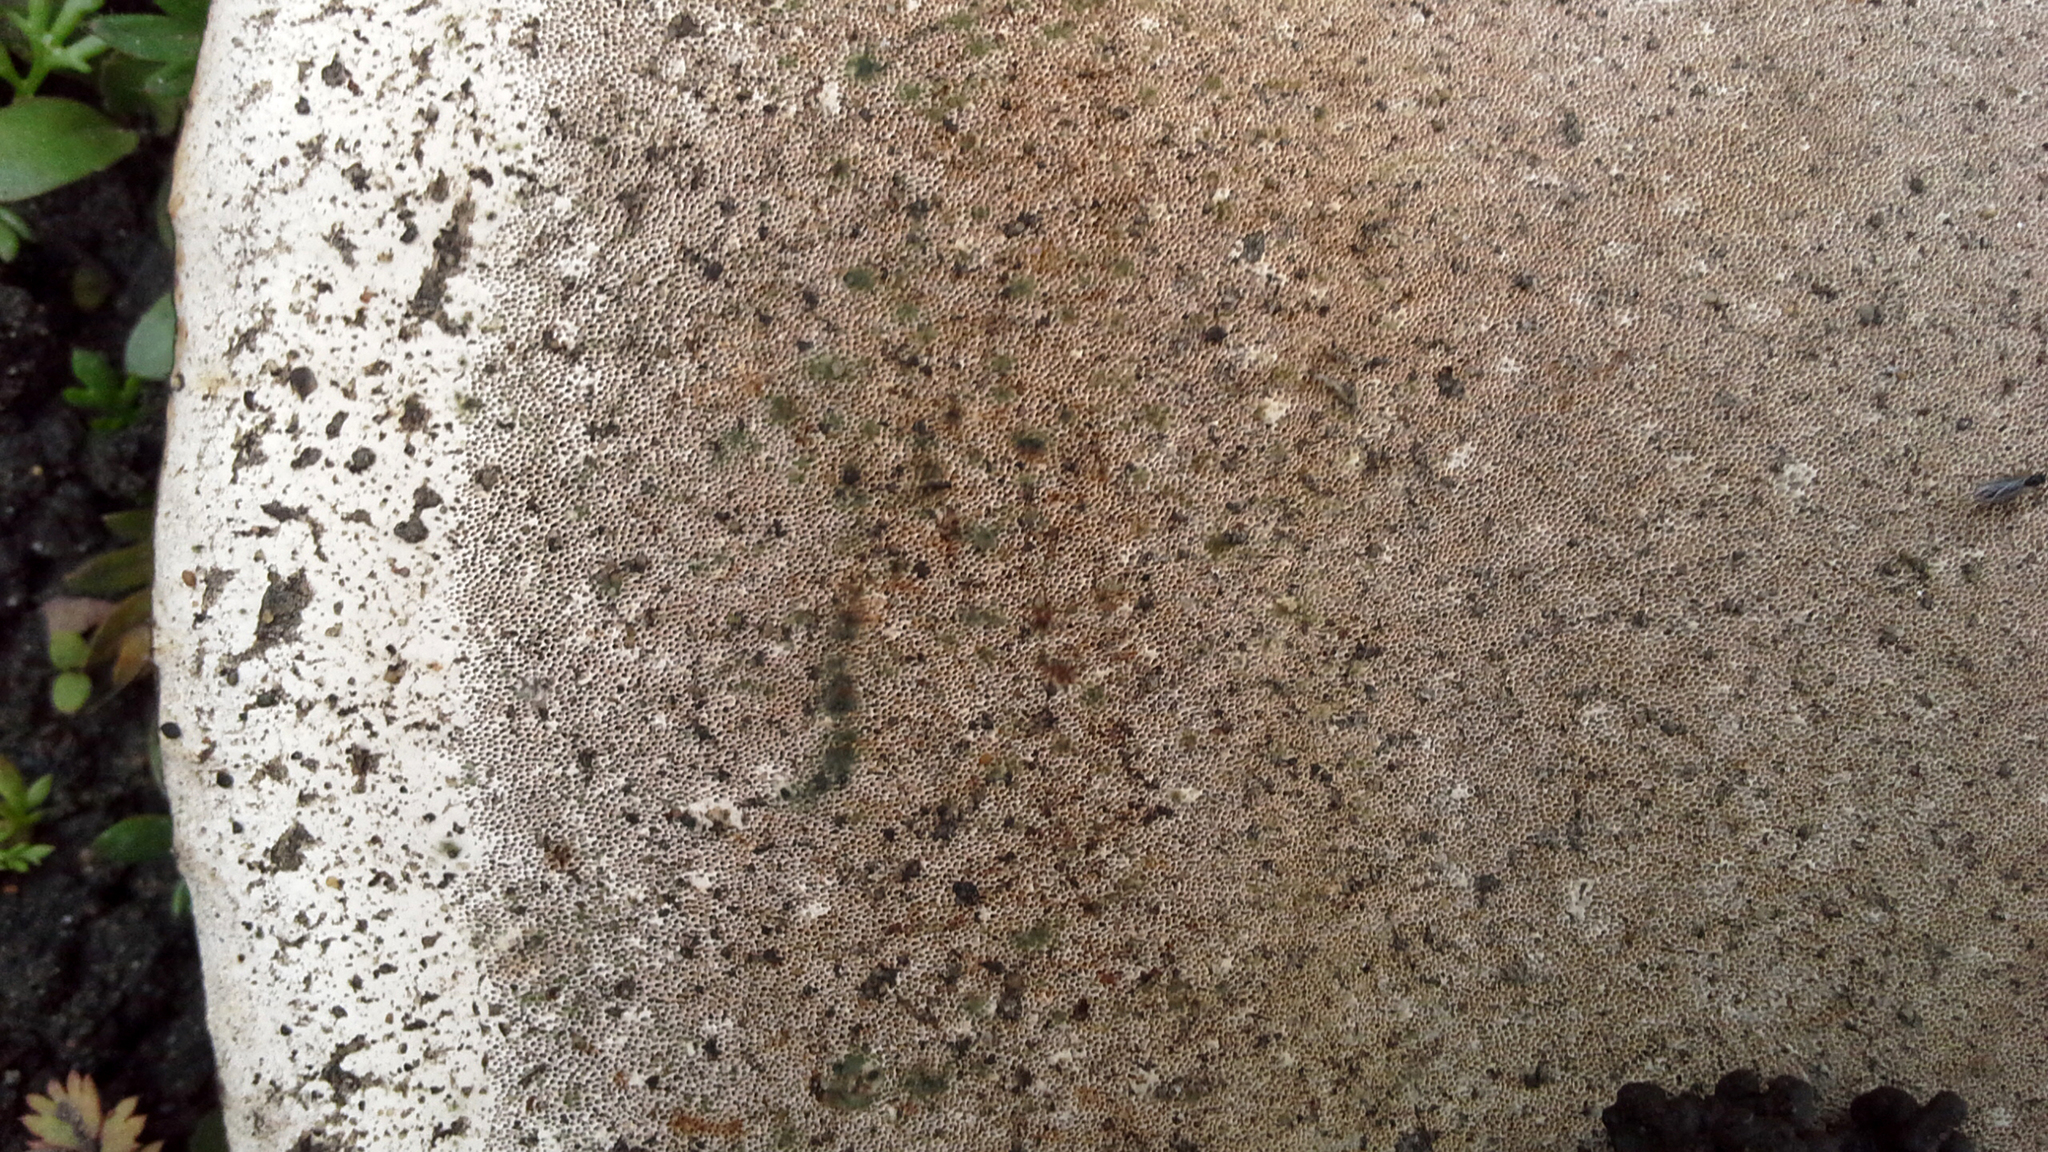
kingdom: Fungi
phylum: Basidiomycota
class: Agaricomycetes
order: Polyporales
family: Polyporaceae
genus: Fomes
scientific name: Fomes fomentarius
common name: Hoof fungus
